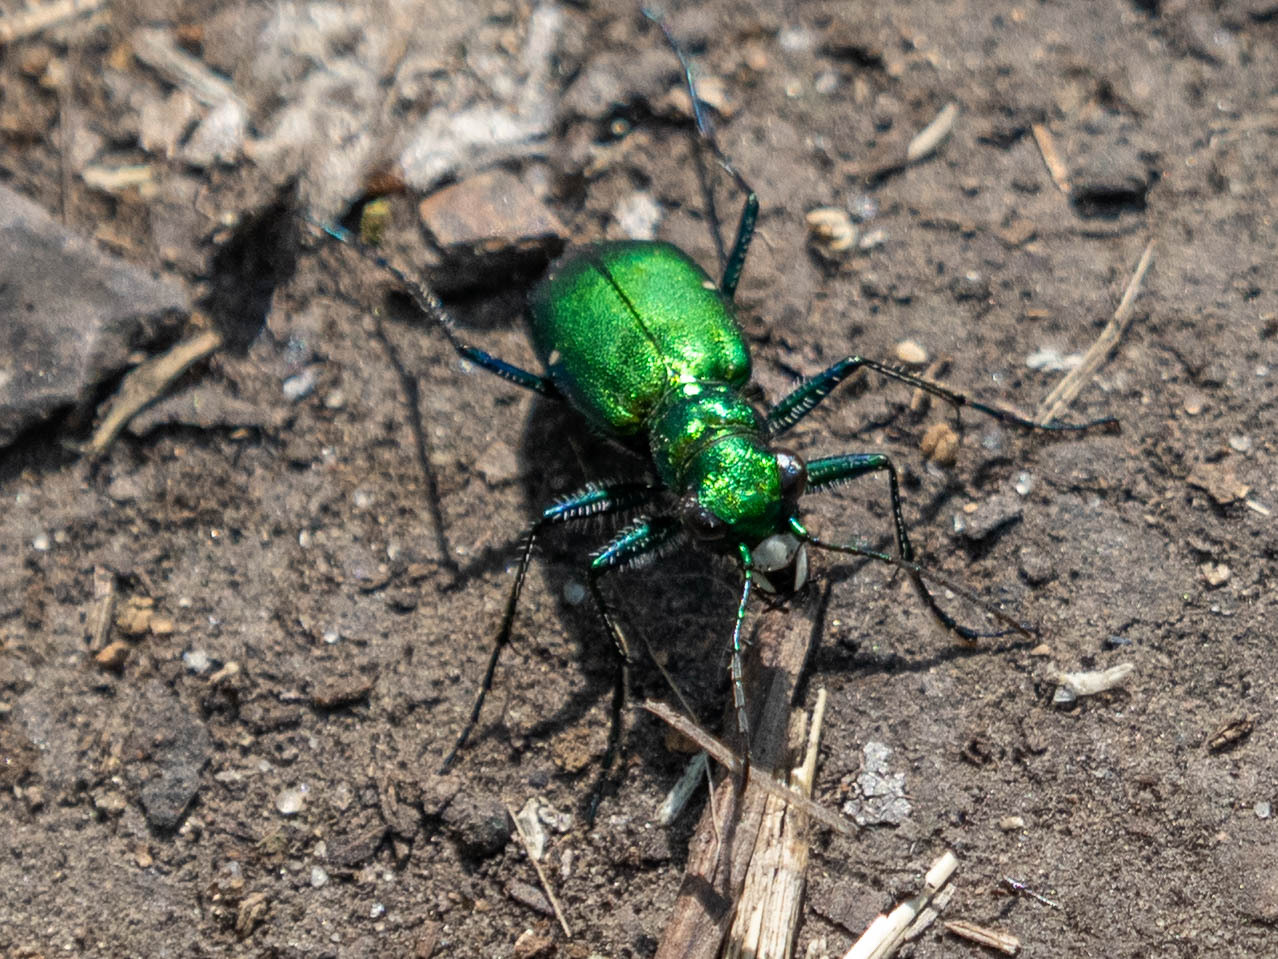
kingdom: Animalia
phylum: Arthropoda
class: Insecta
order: Coleoptera
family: Carabidae
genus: Cicindela
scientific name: Cicindela sexguttata
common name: Six-spotted tiger beetle
